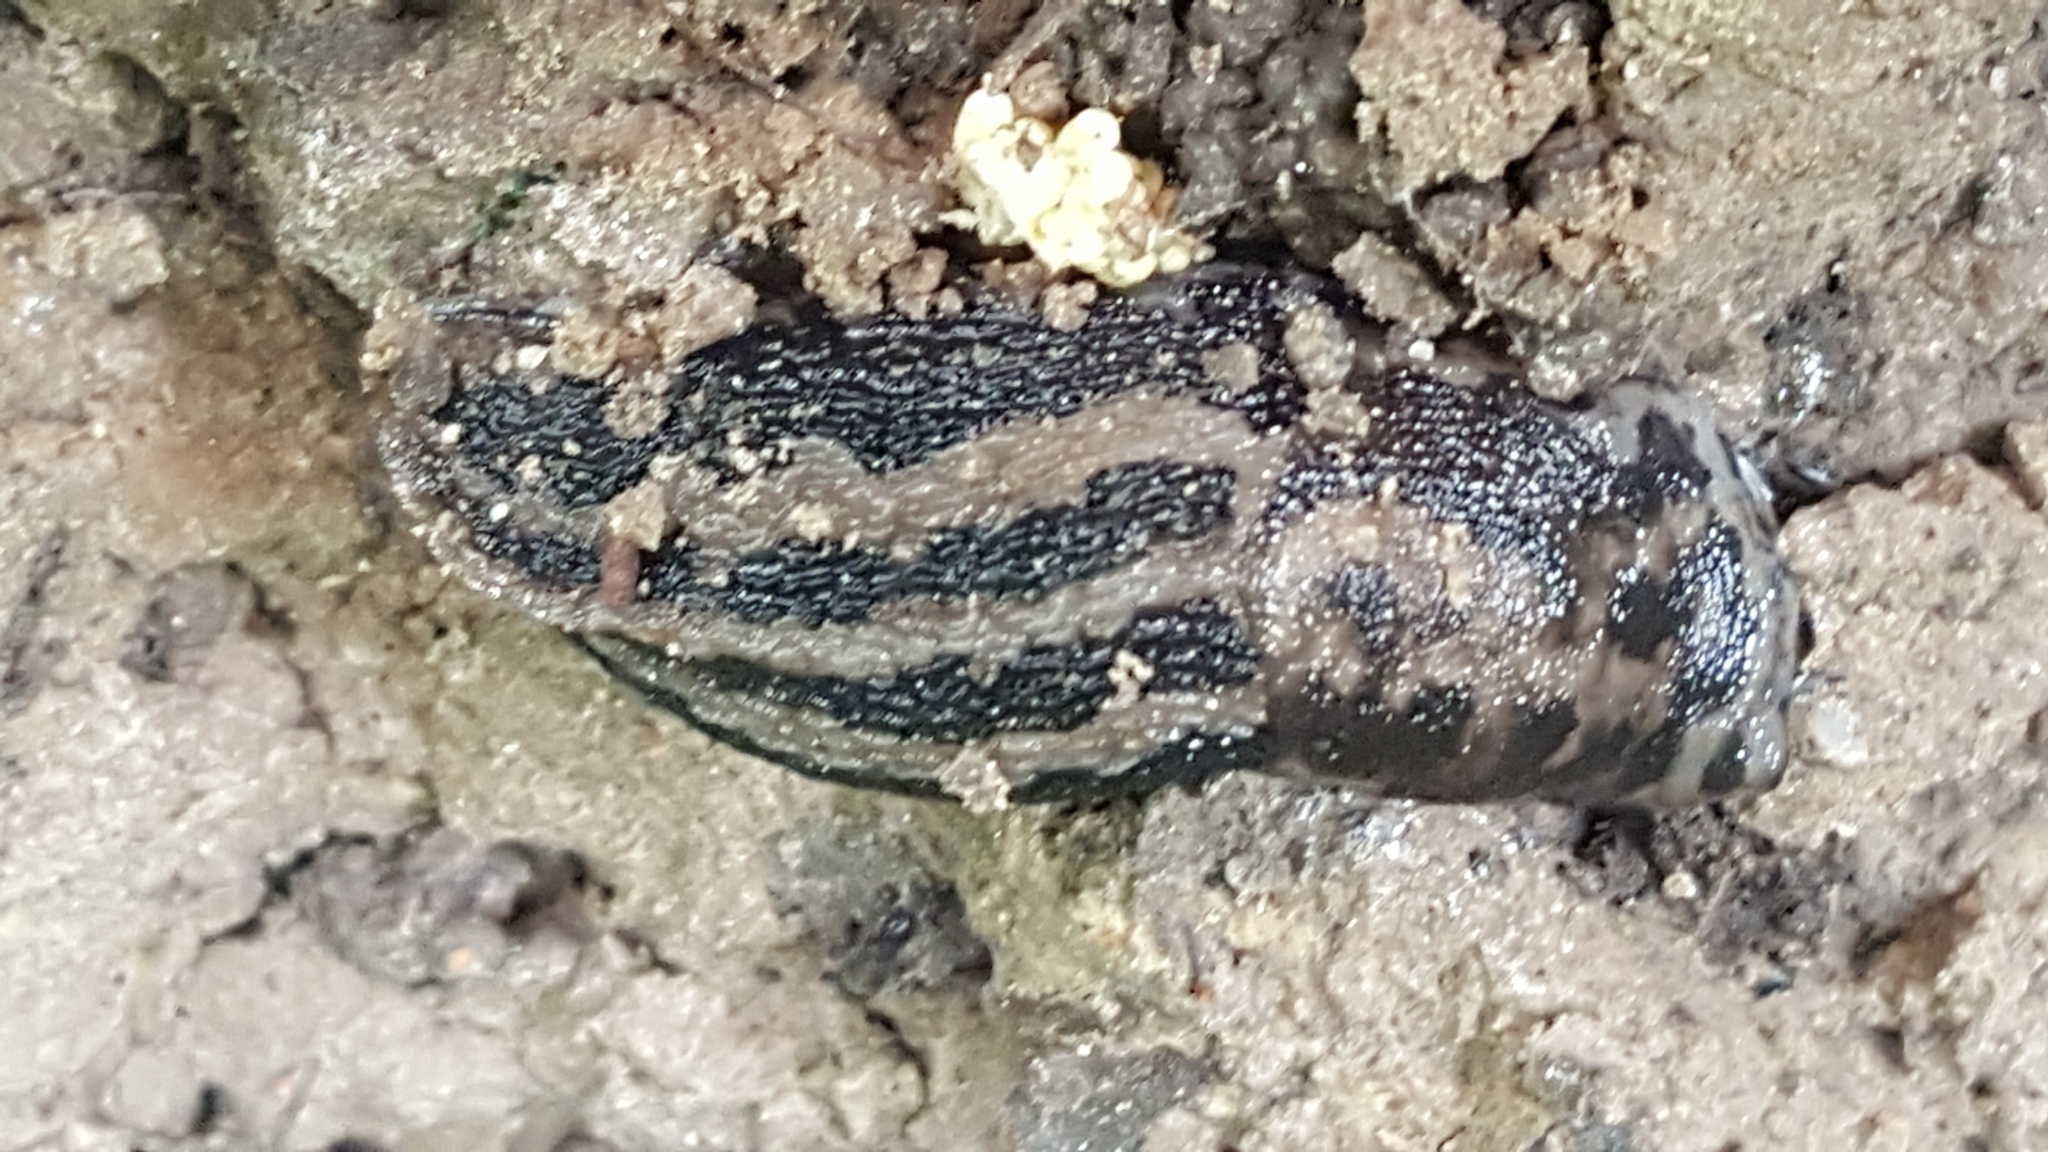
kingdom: Animalia
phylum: Mollusca
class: Gastropoda
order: Stylommatophora
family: Limacidae
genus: Limax
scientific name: Limax maximus
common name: Great grey slug
